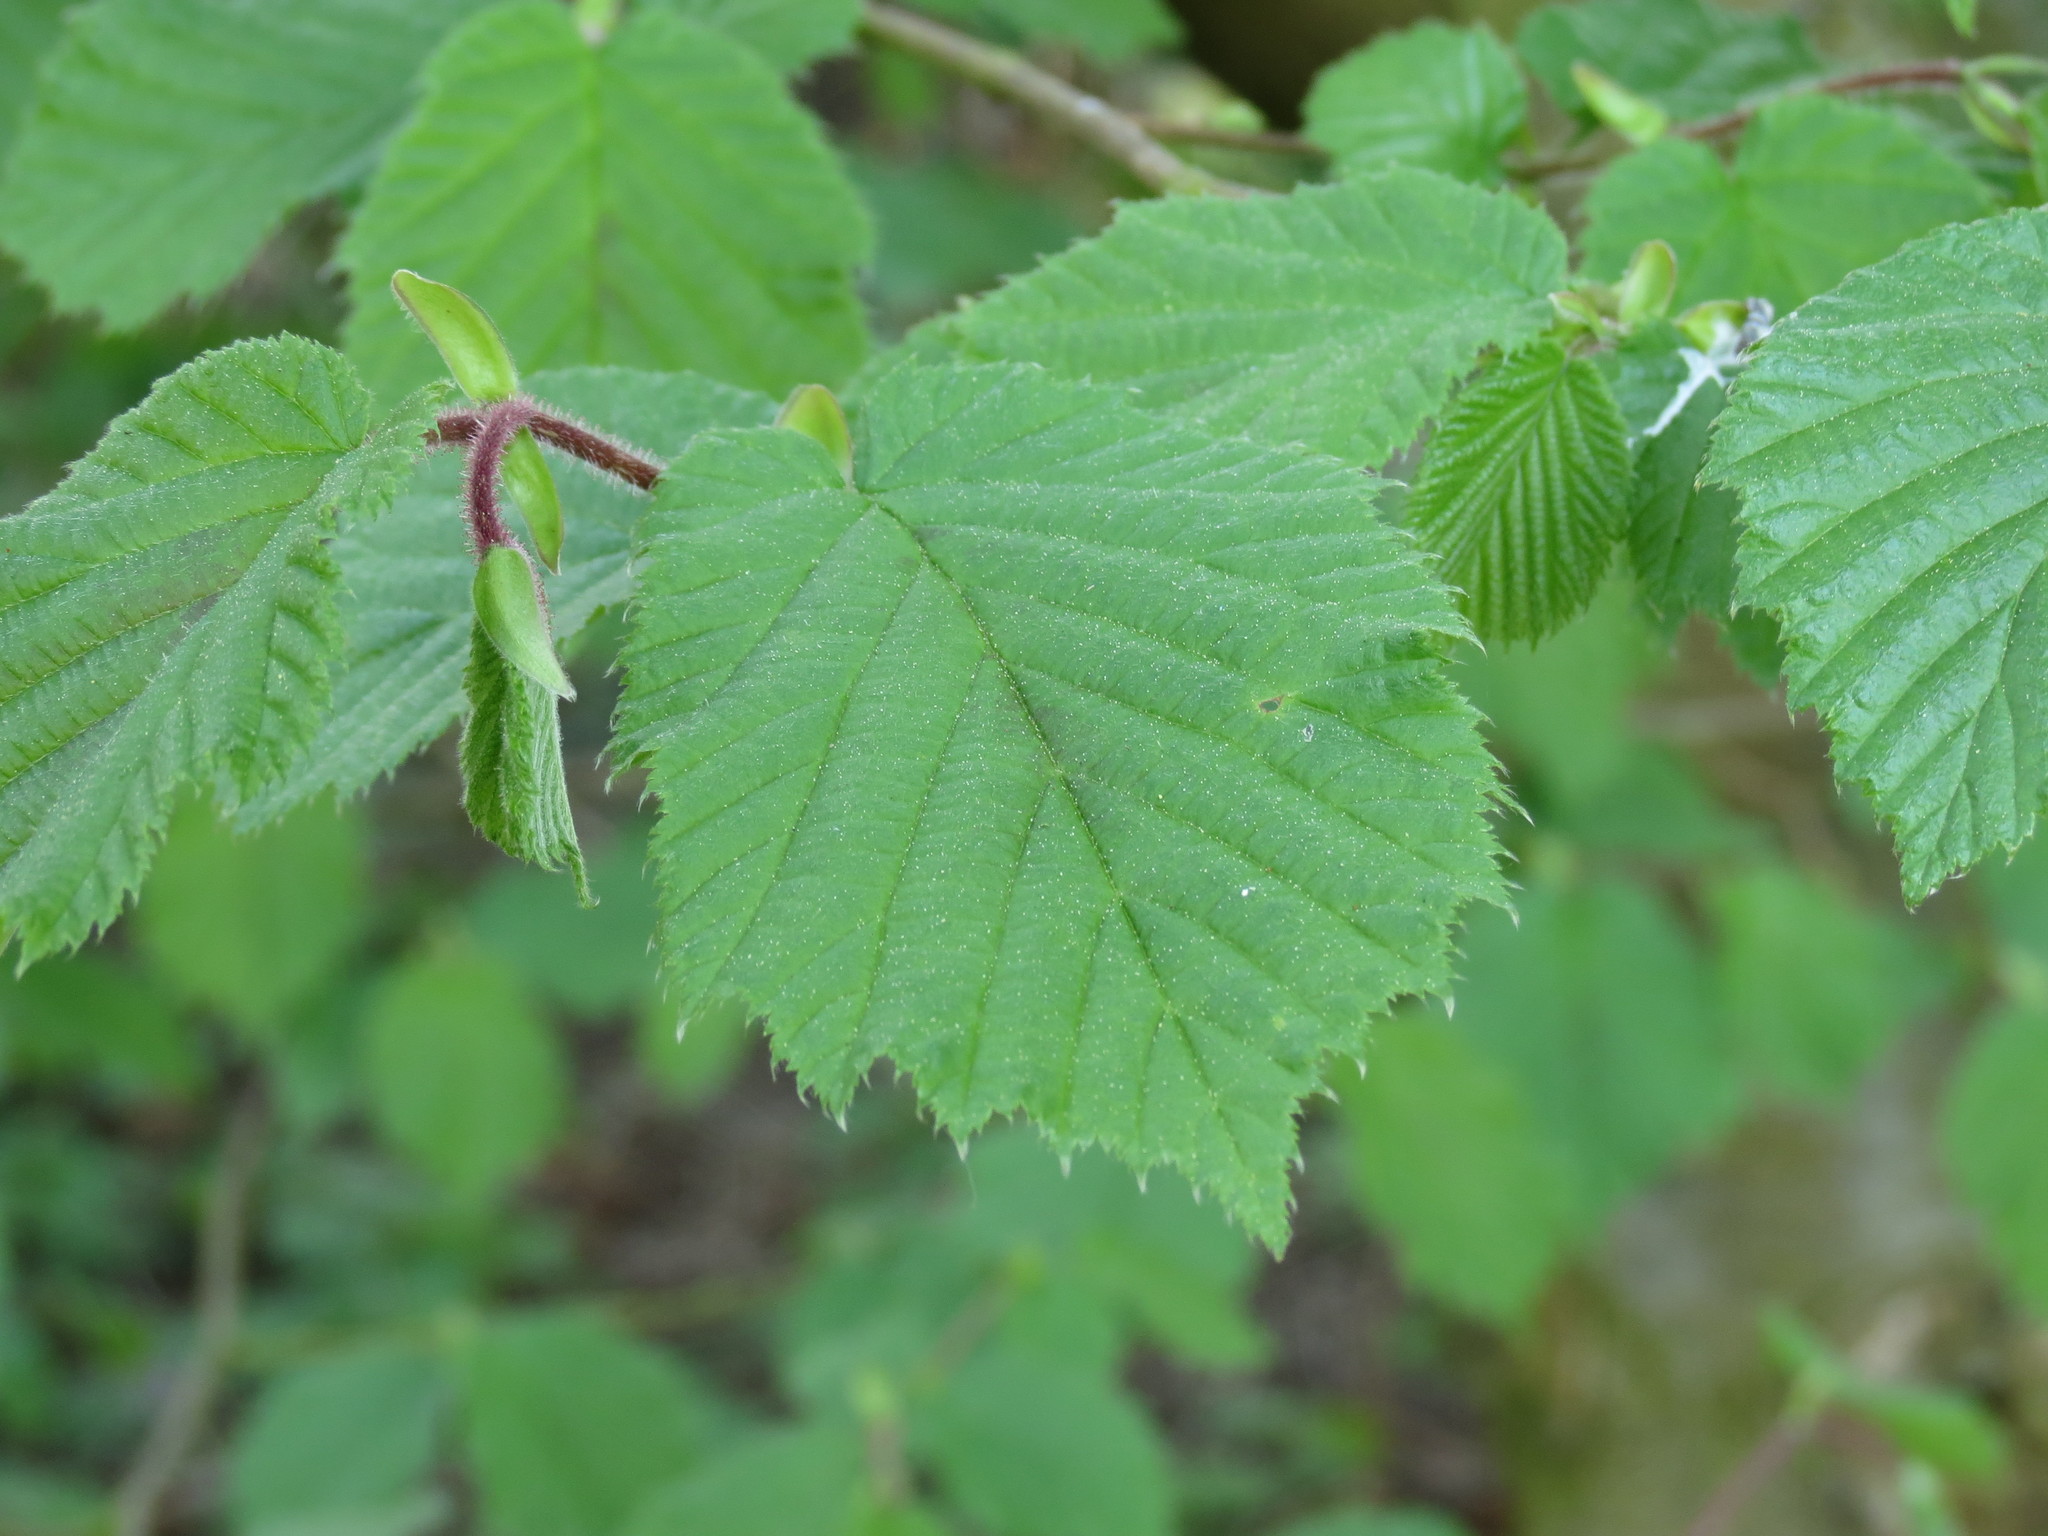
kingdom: Plantae
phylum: Tracheophyta
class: Magnoliopsida
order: Fagales
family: Betulaceae
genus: Corylus
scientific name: Corylus avellana
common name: European hazel
